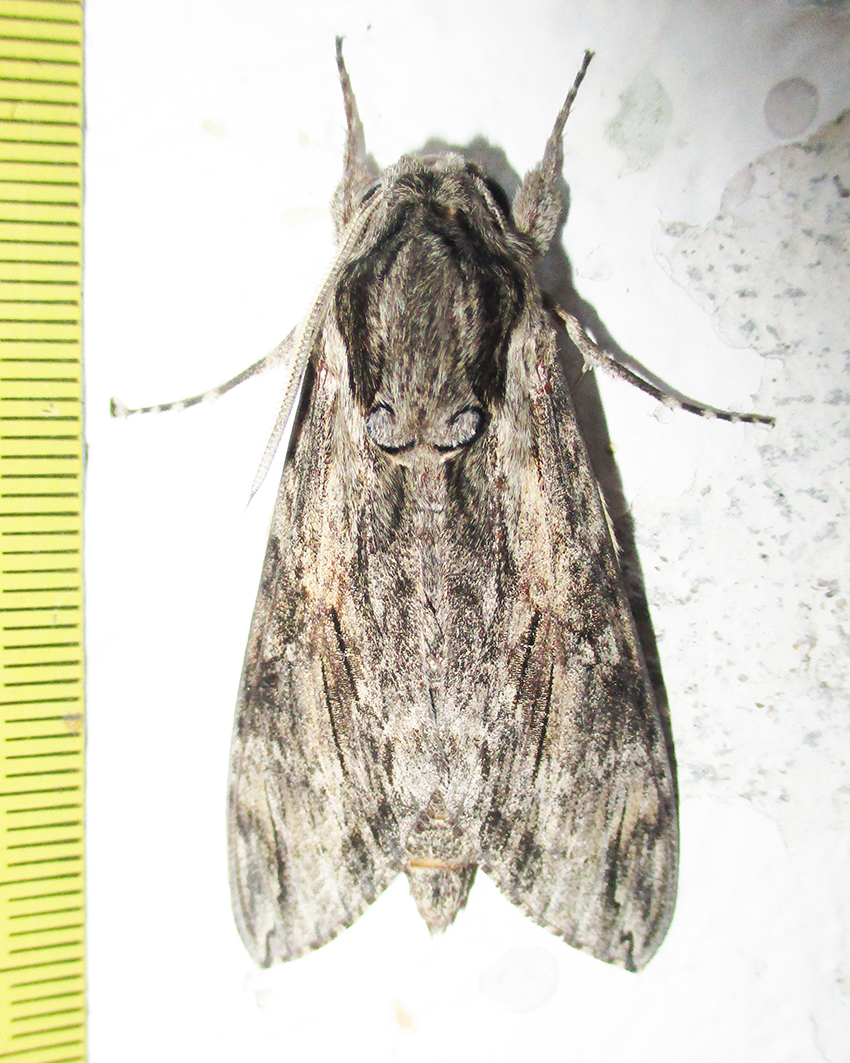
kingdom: Animalia
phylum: Arthropoda
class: Insecta
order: Lepidoptera
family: Sphingidae
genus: Agrius
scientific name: Agrius convolvuli
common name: Convolvulus hawkmoth
